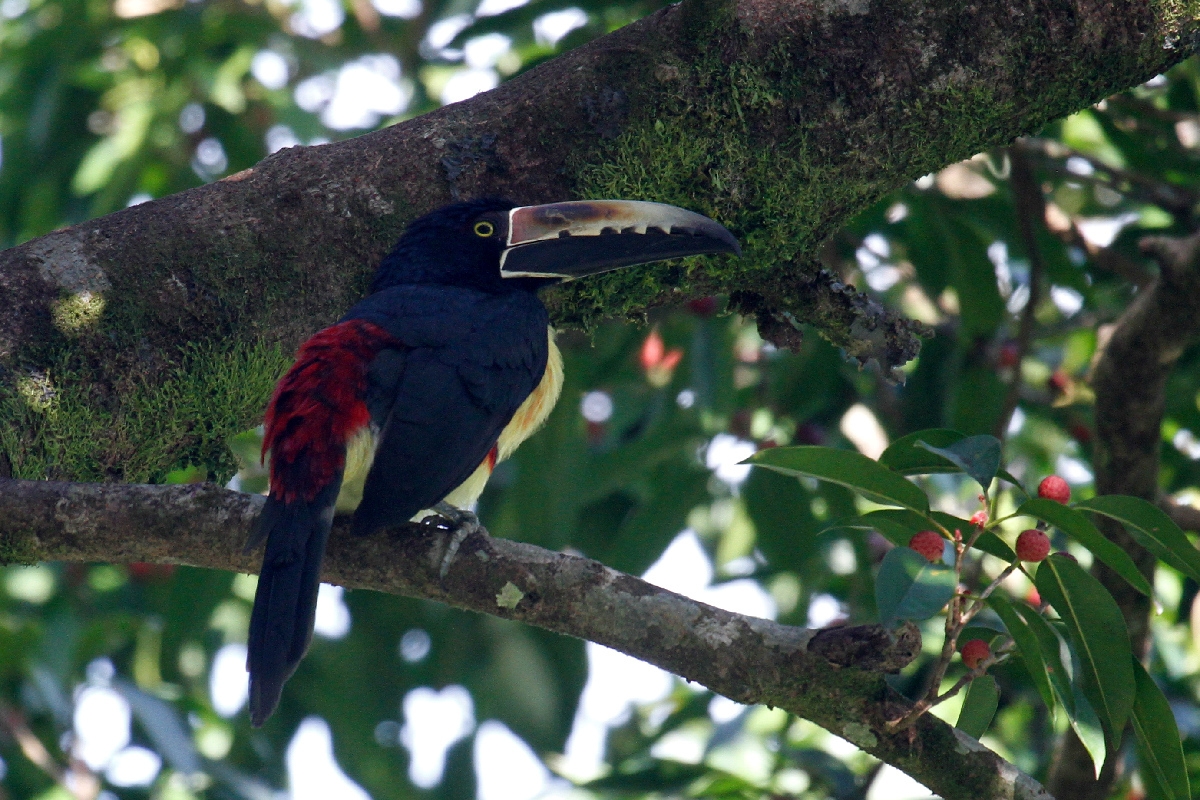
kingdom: Animalia
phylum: Chordata
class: Aves
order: Piciformes
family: Ramphastidae
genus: Pteroglossus
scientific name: Pteroglossus torquatus
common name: Collared aracari
